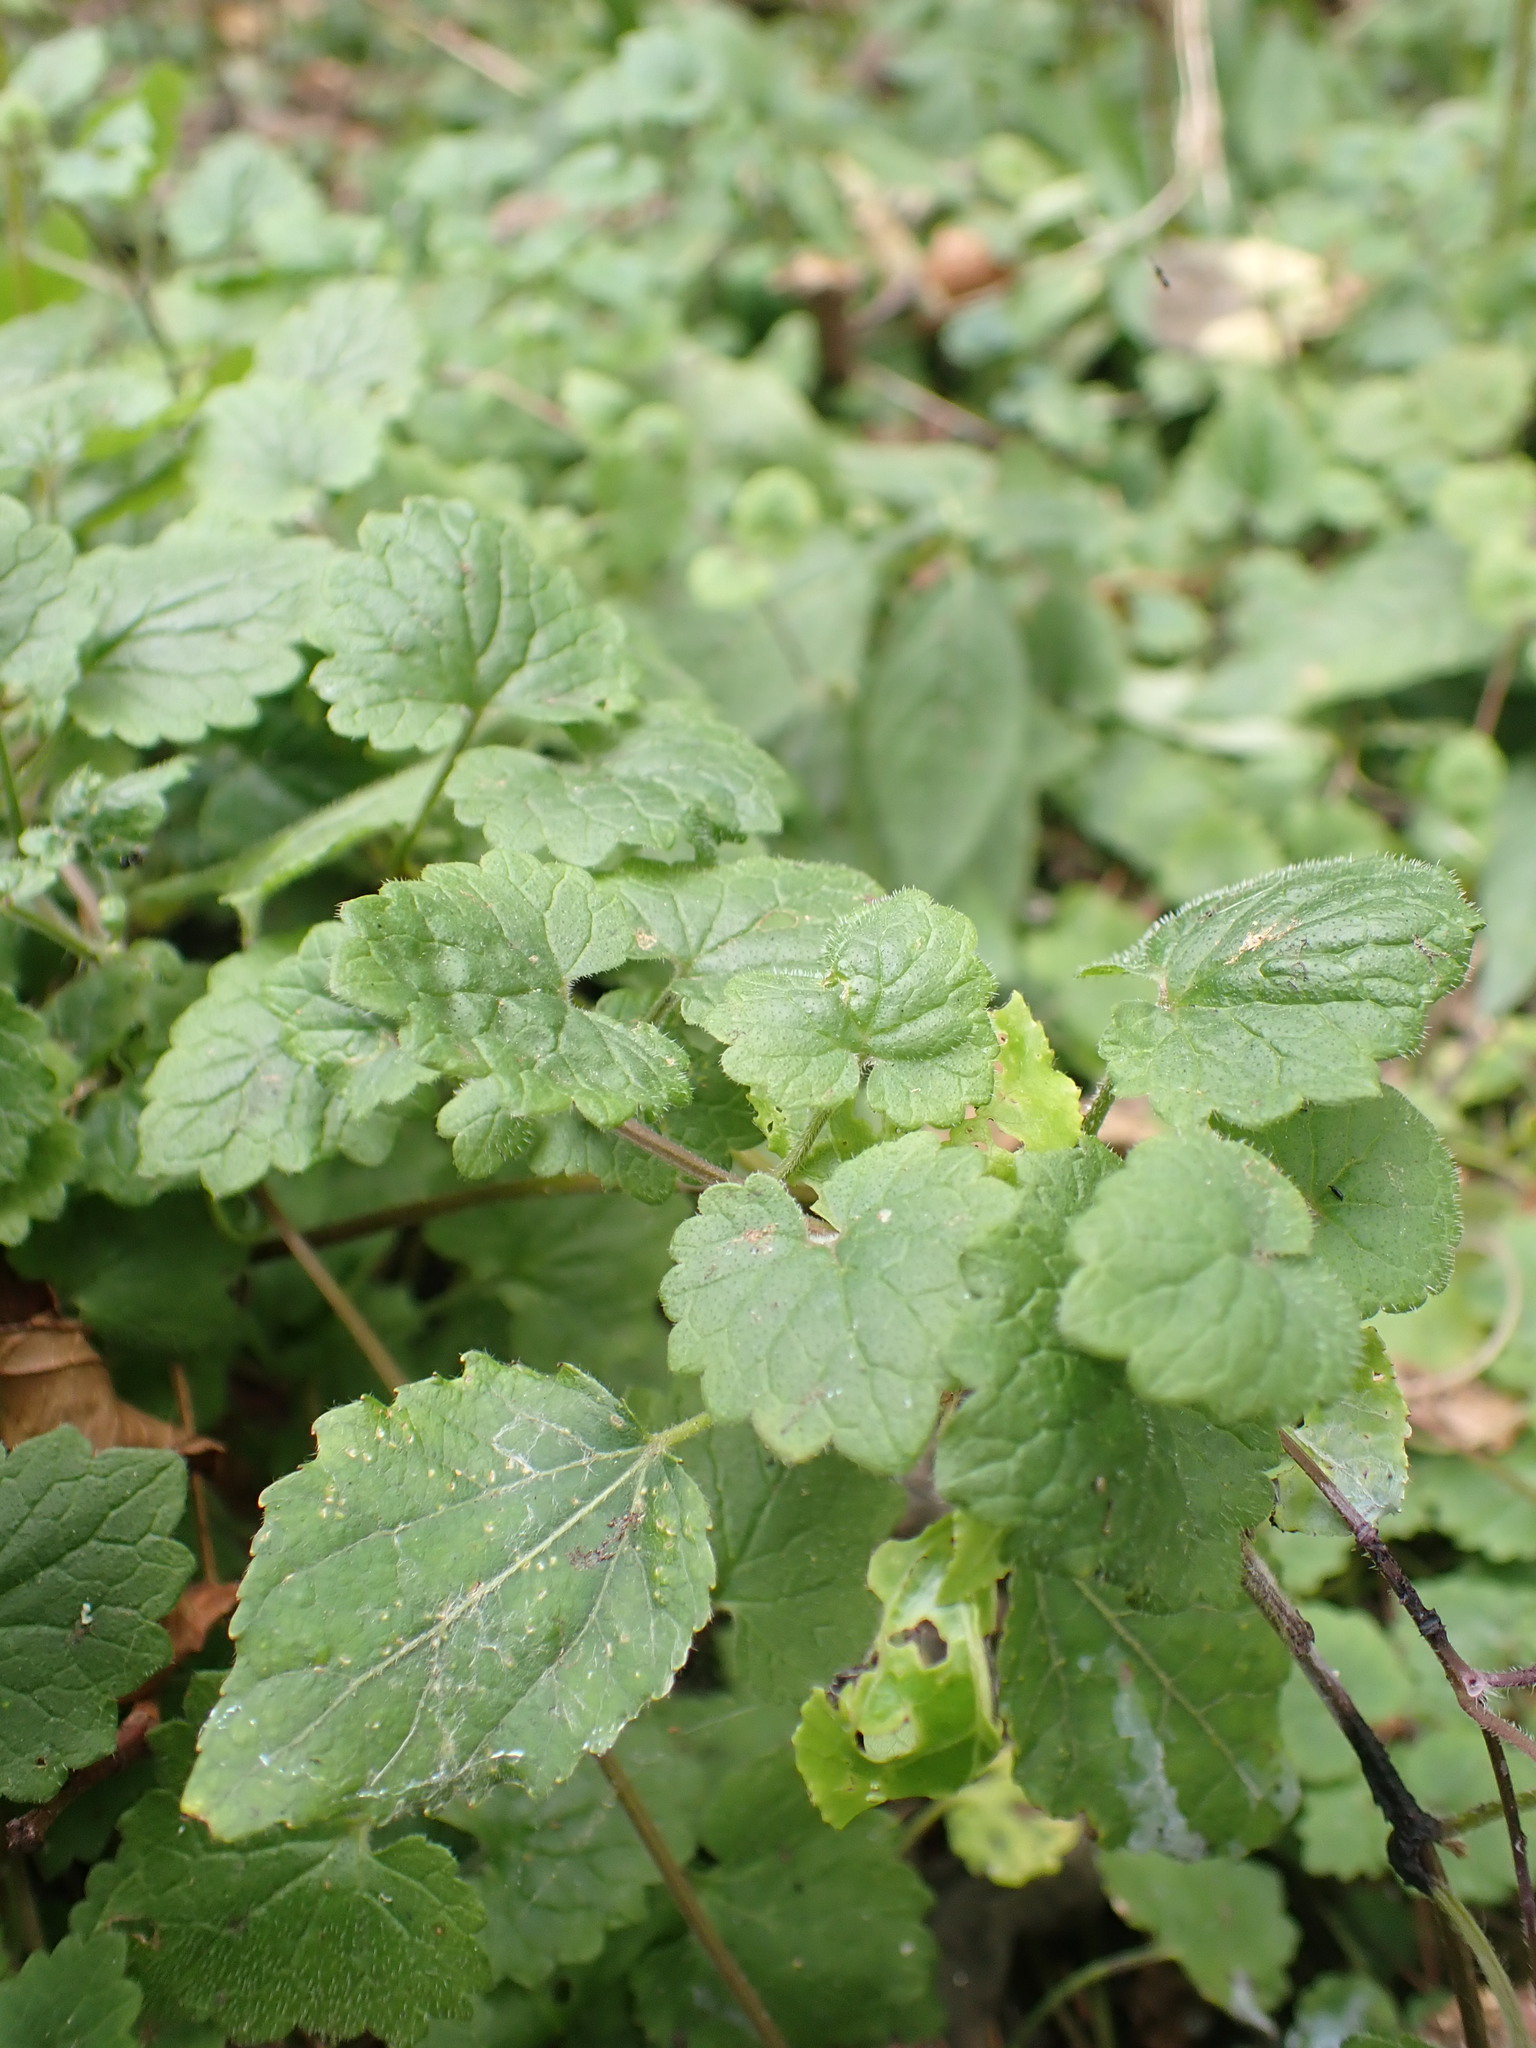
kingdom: Plantae
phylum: Tracheophyta
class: Magnoliopsida
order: Lamiales
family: Lamiaceae
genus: Glechoma
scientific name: Glechoma hederacea
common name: Ground ivy
